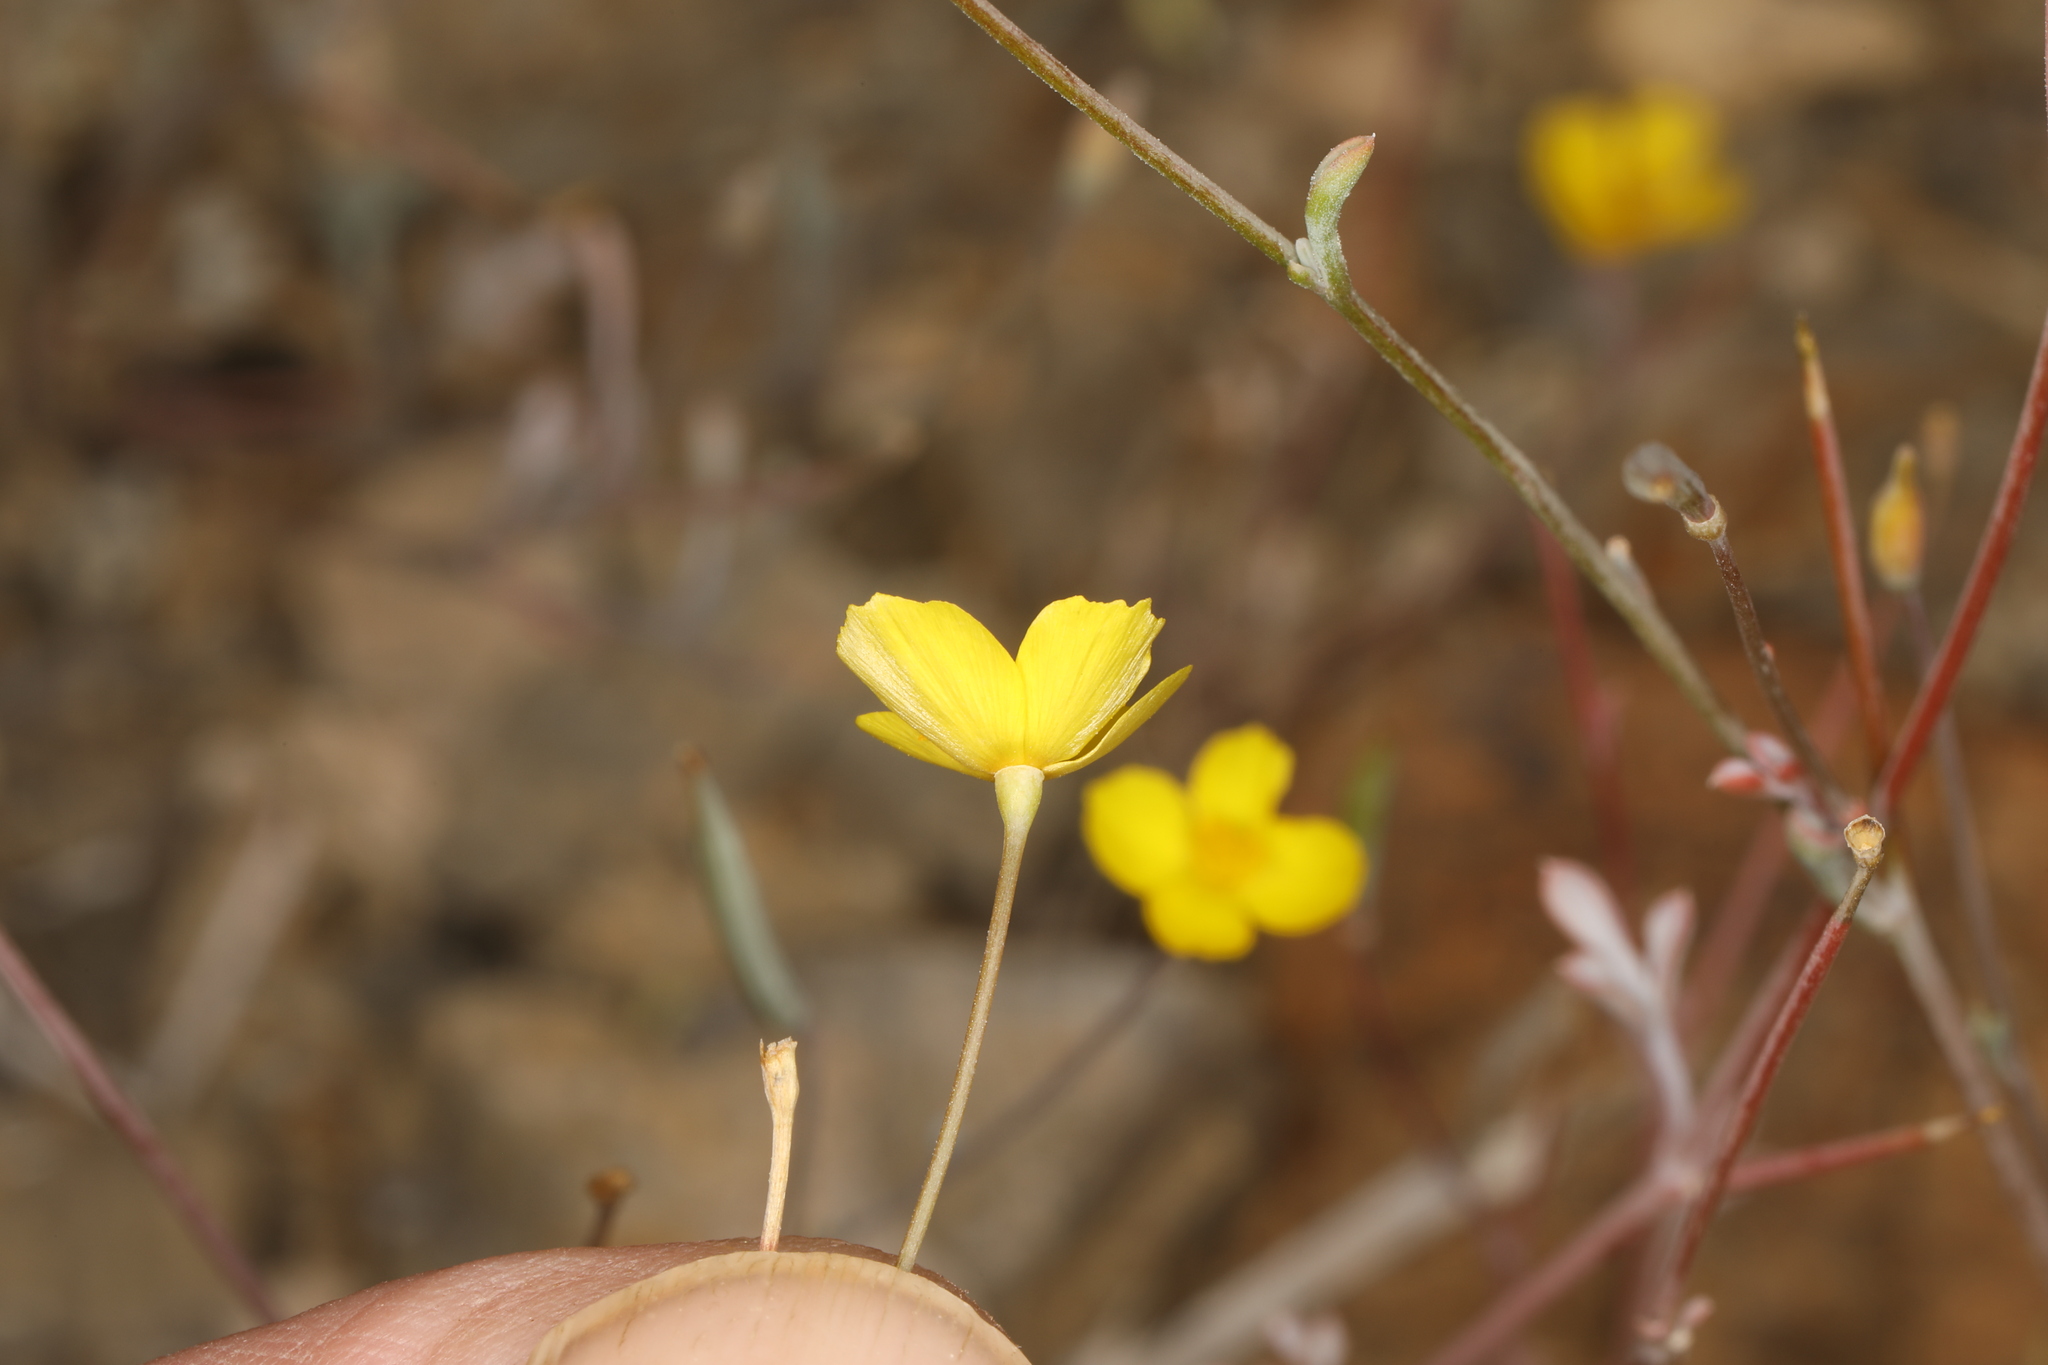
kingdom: Plantae
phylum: Tracheophyta
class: Magnoliopsida
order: Ranunculales
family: Papaveraceae
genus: Eschscholzia
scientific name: Eschscholzia minutiflora
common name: Small-flower california-poppy
